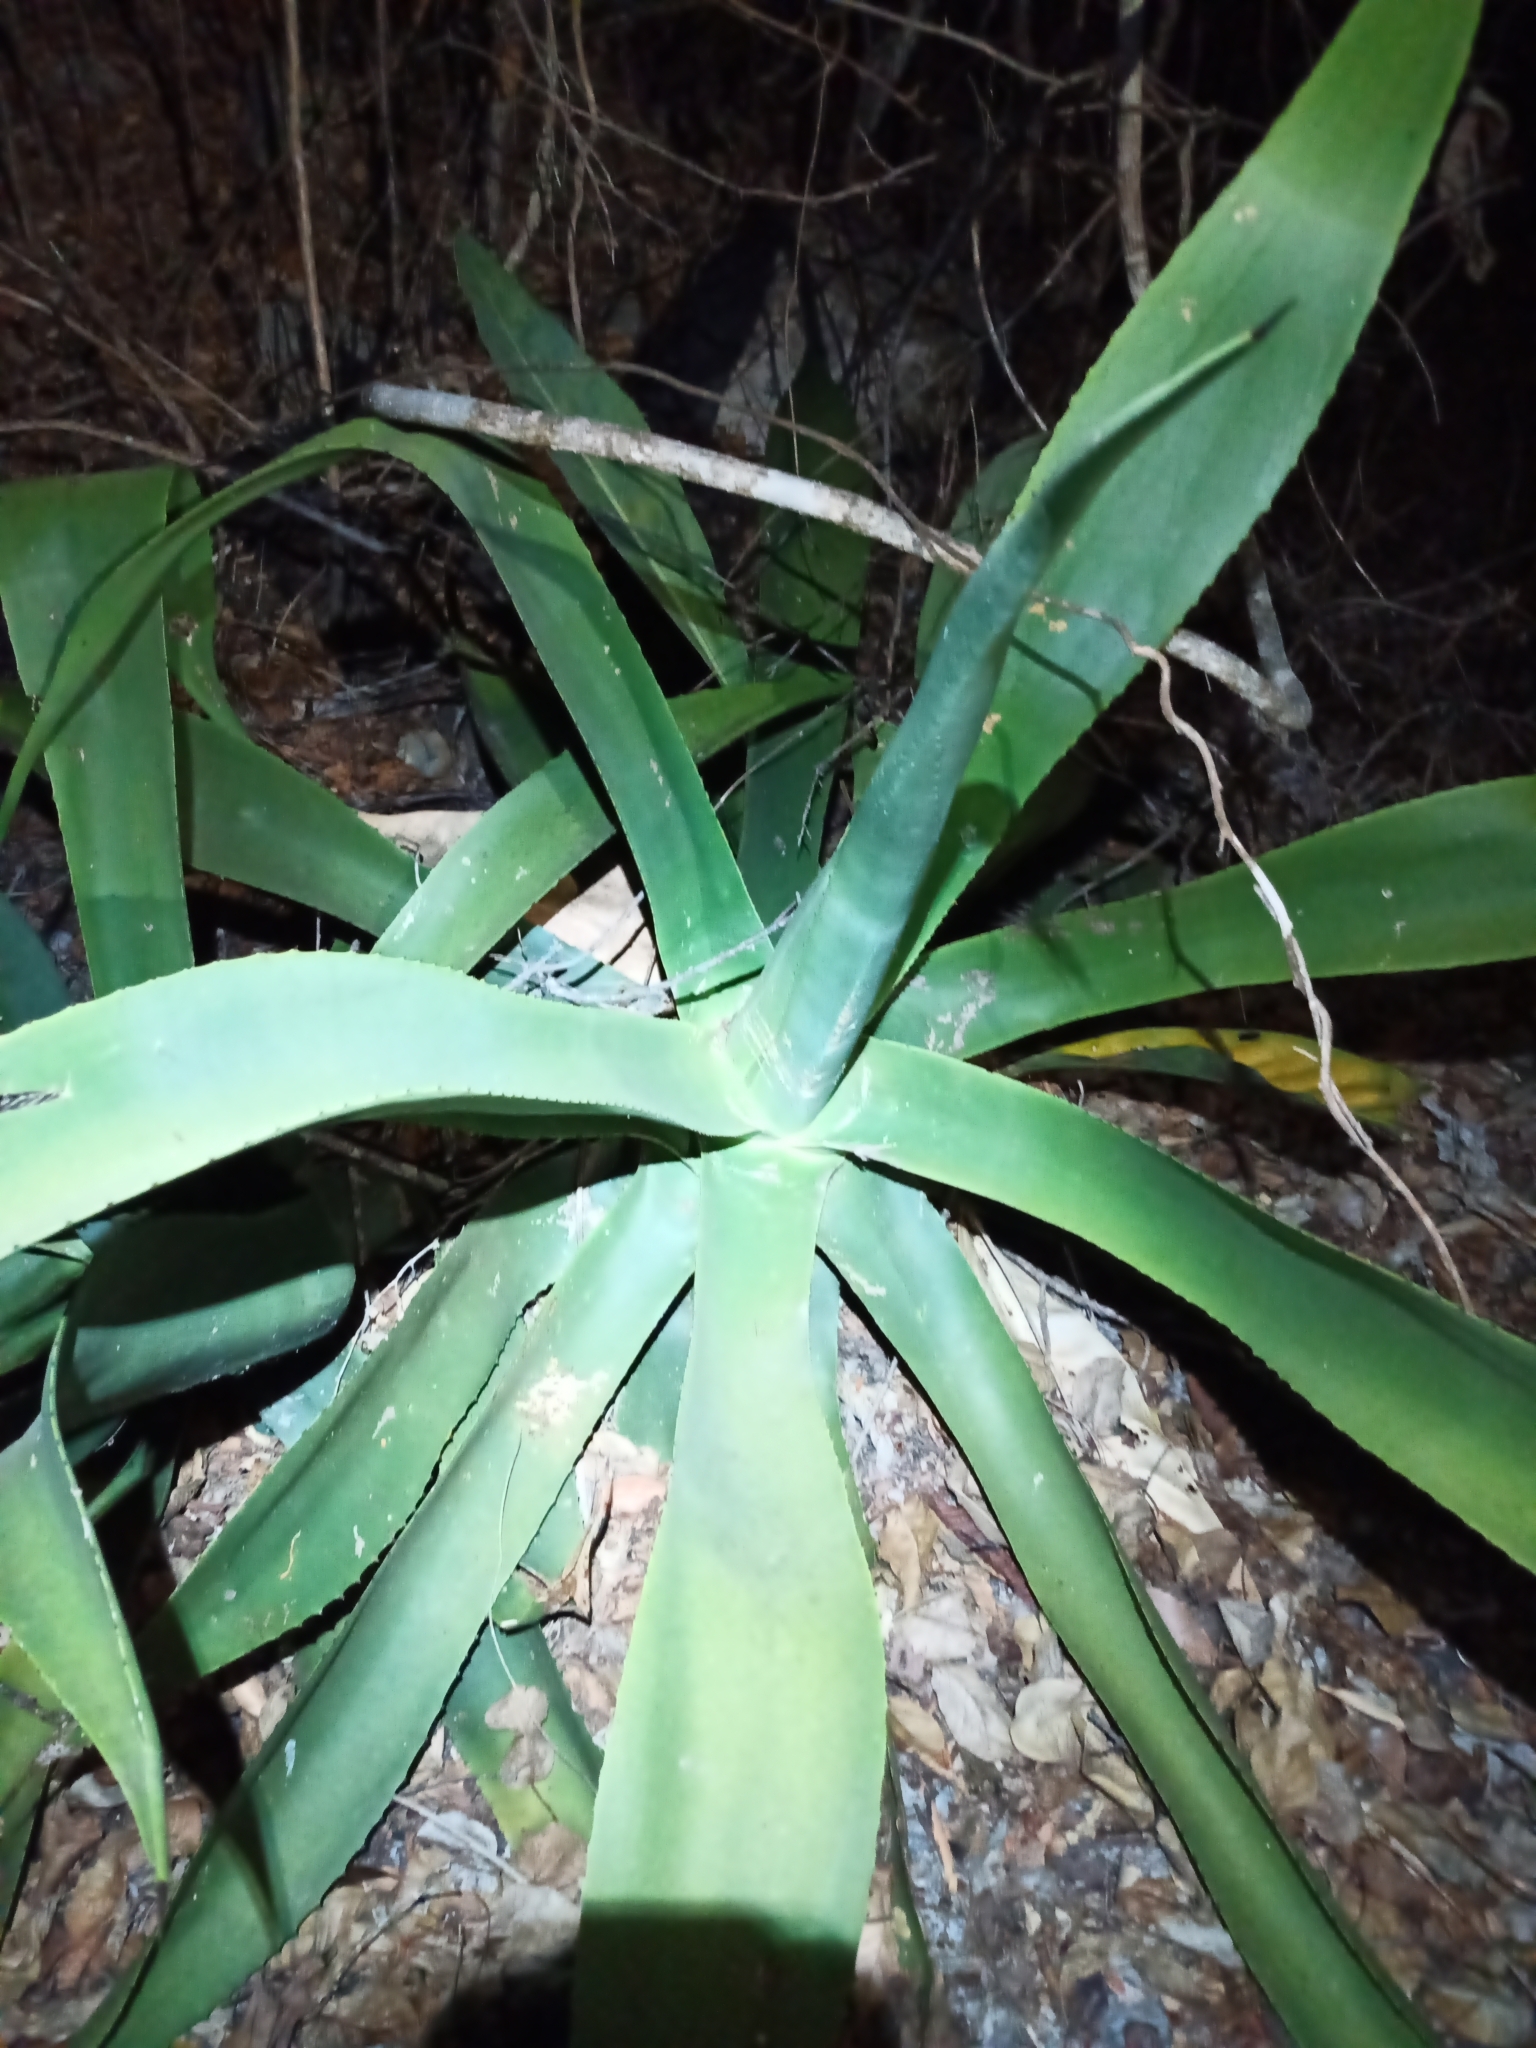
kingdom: Plantae
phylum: Tracheophyta
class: Liliopsida
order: Asparagales
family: Asparagaceae
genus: Agave
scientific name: Agave kewensis
